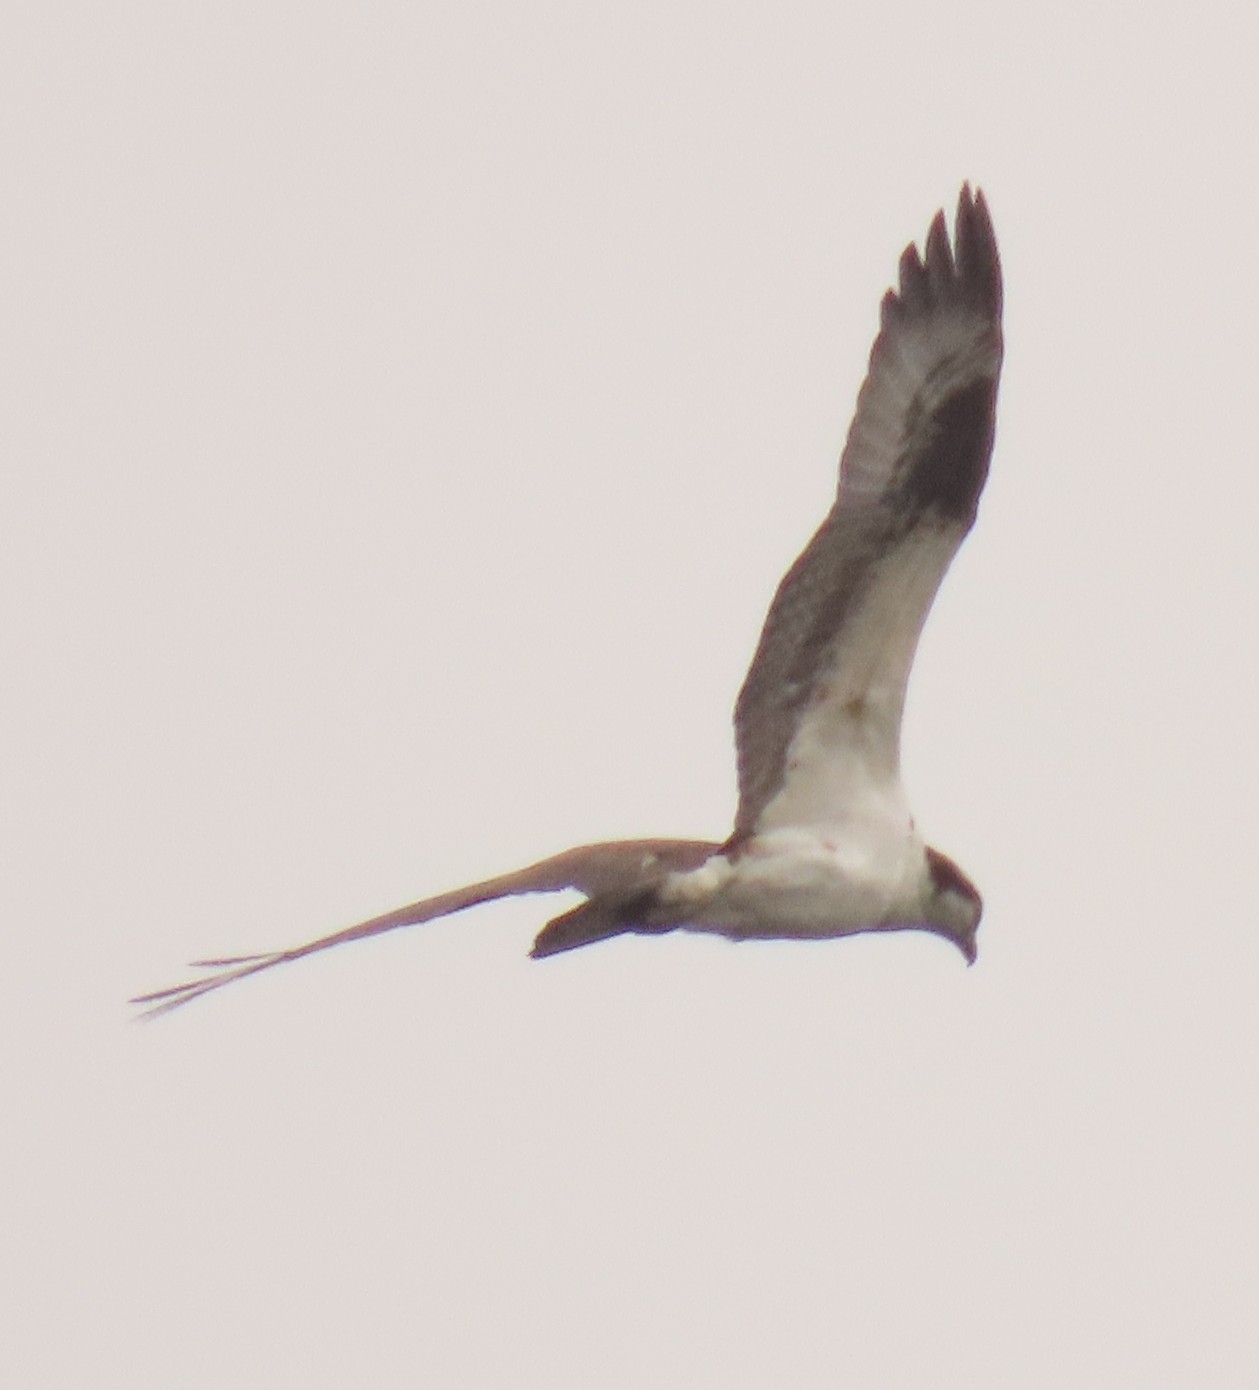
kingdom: Animalia
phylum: Chordata
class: Aves
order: Accipitriformes
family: Pandionidae
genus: Pandion
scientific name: Pandion haliaetus
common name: Osprey
